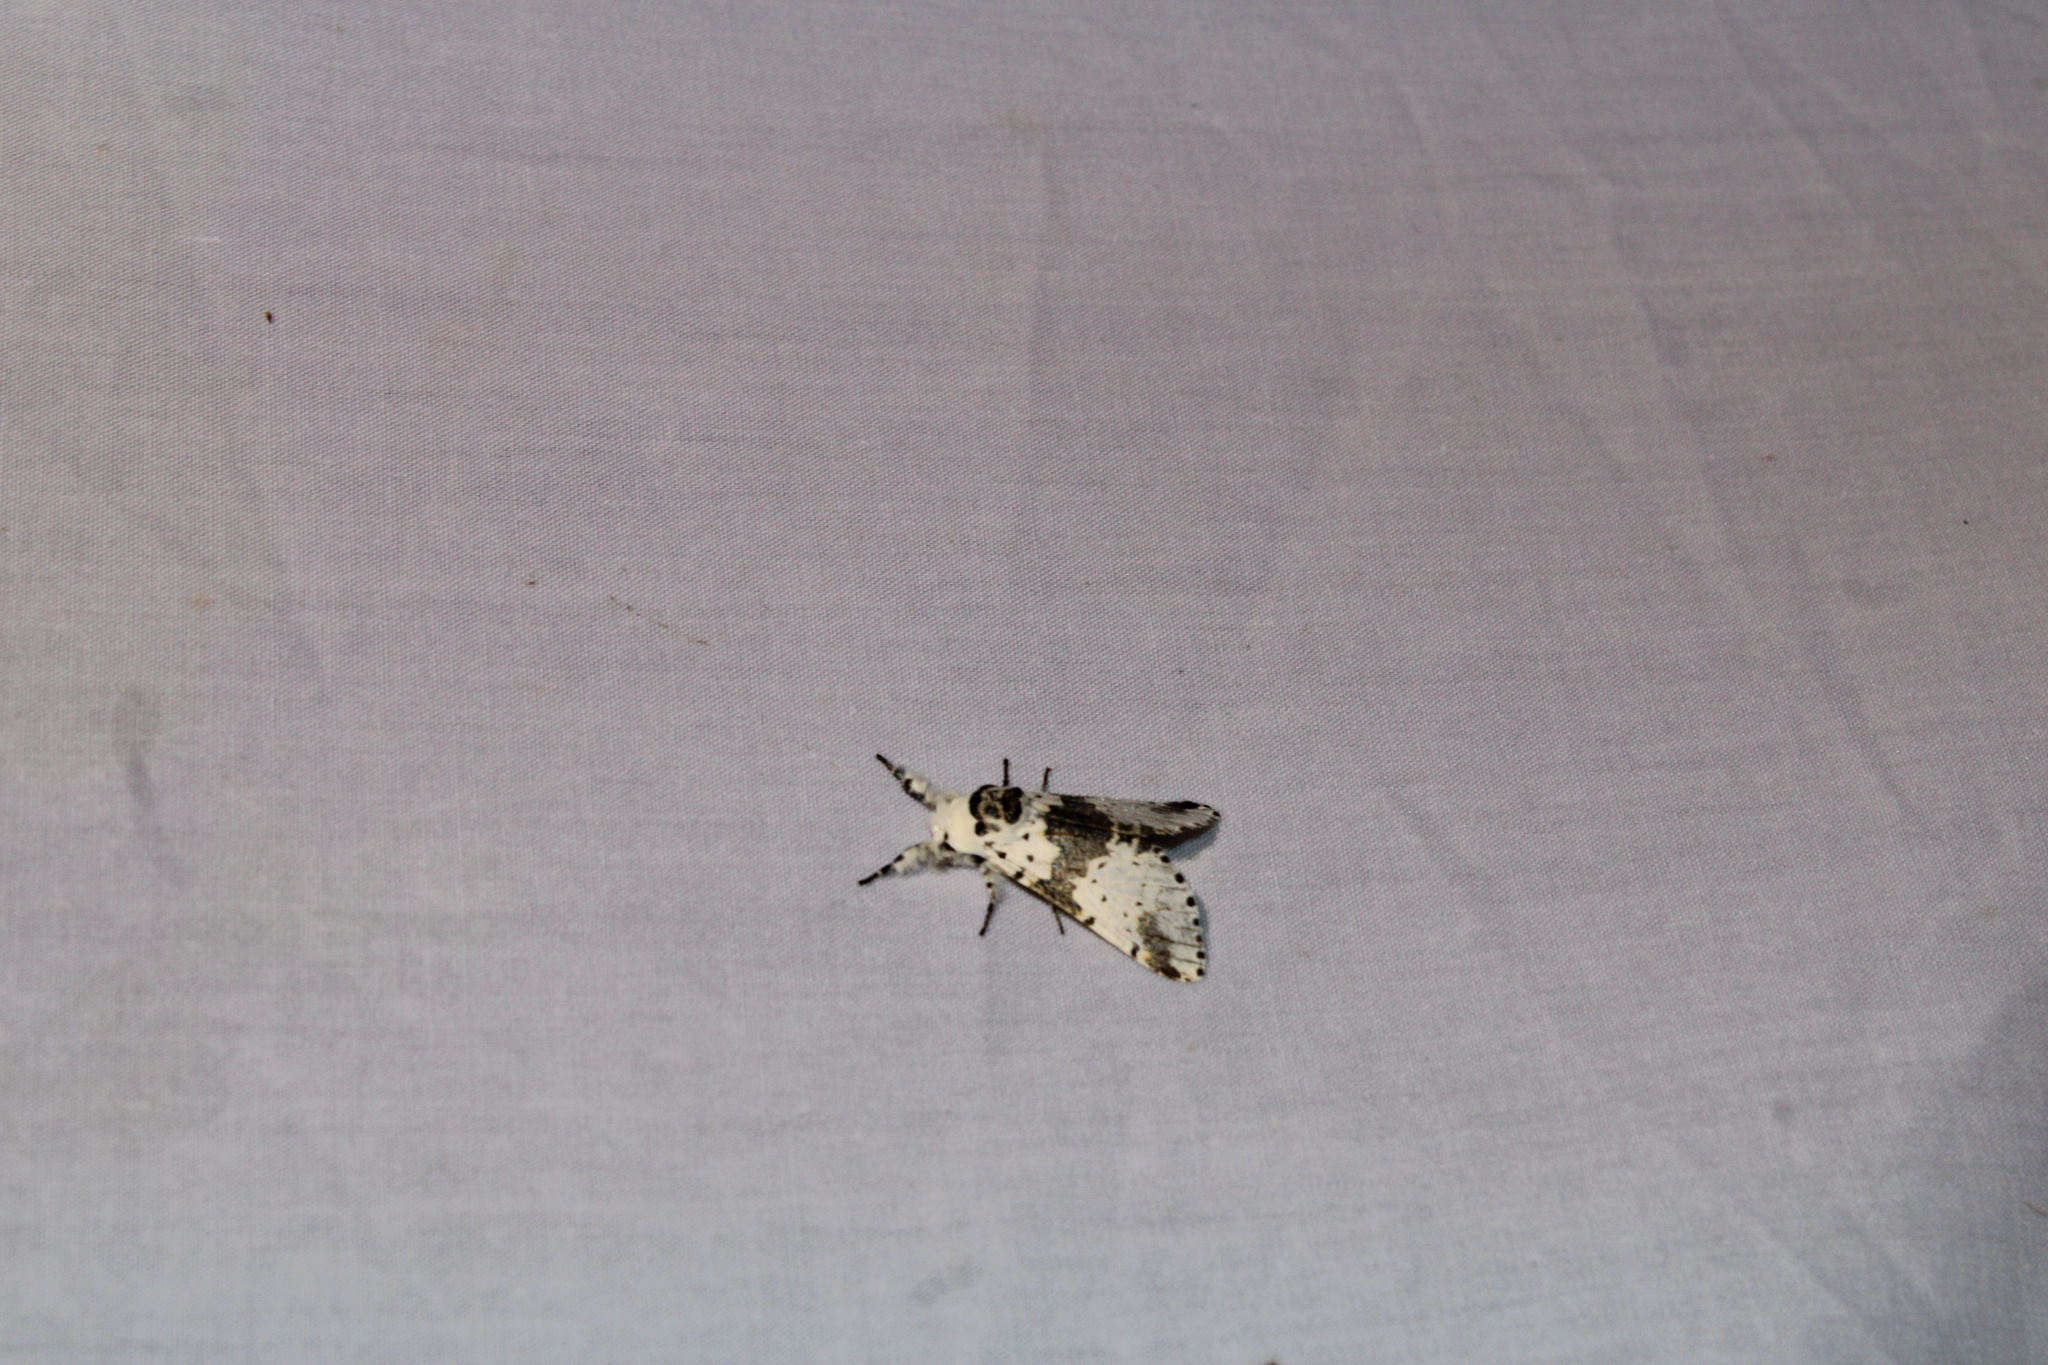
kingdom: Animalia
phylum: Arthropoda
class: Insecta
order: Lepidoptera
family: Notodontidae
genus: Furcula
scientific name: Furcula borealis
